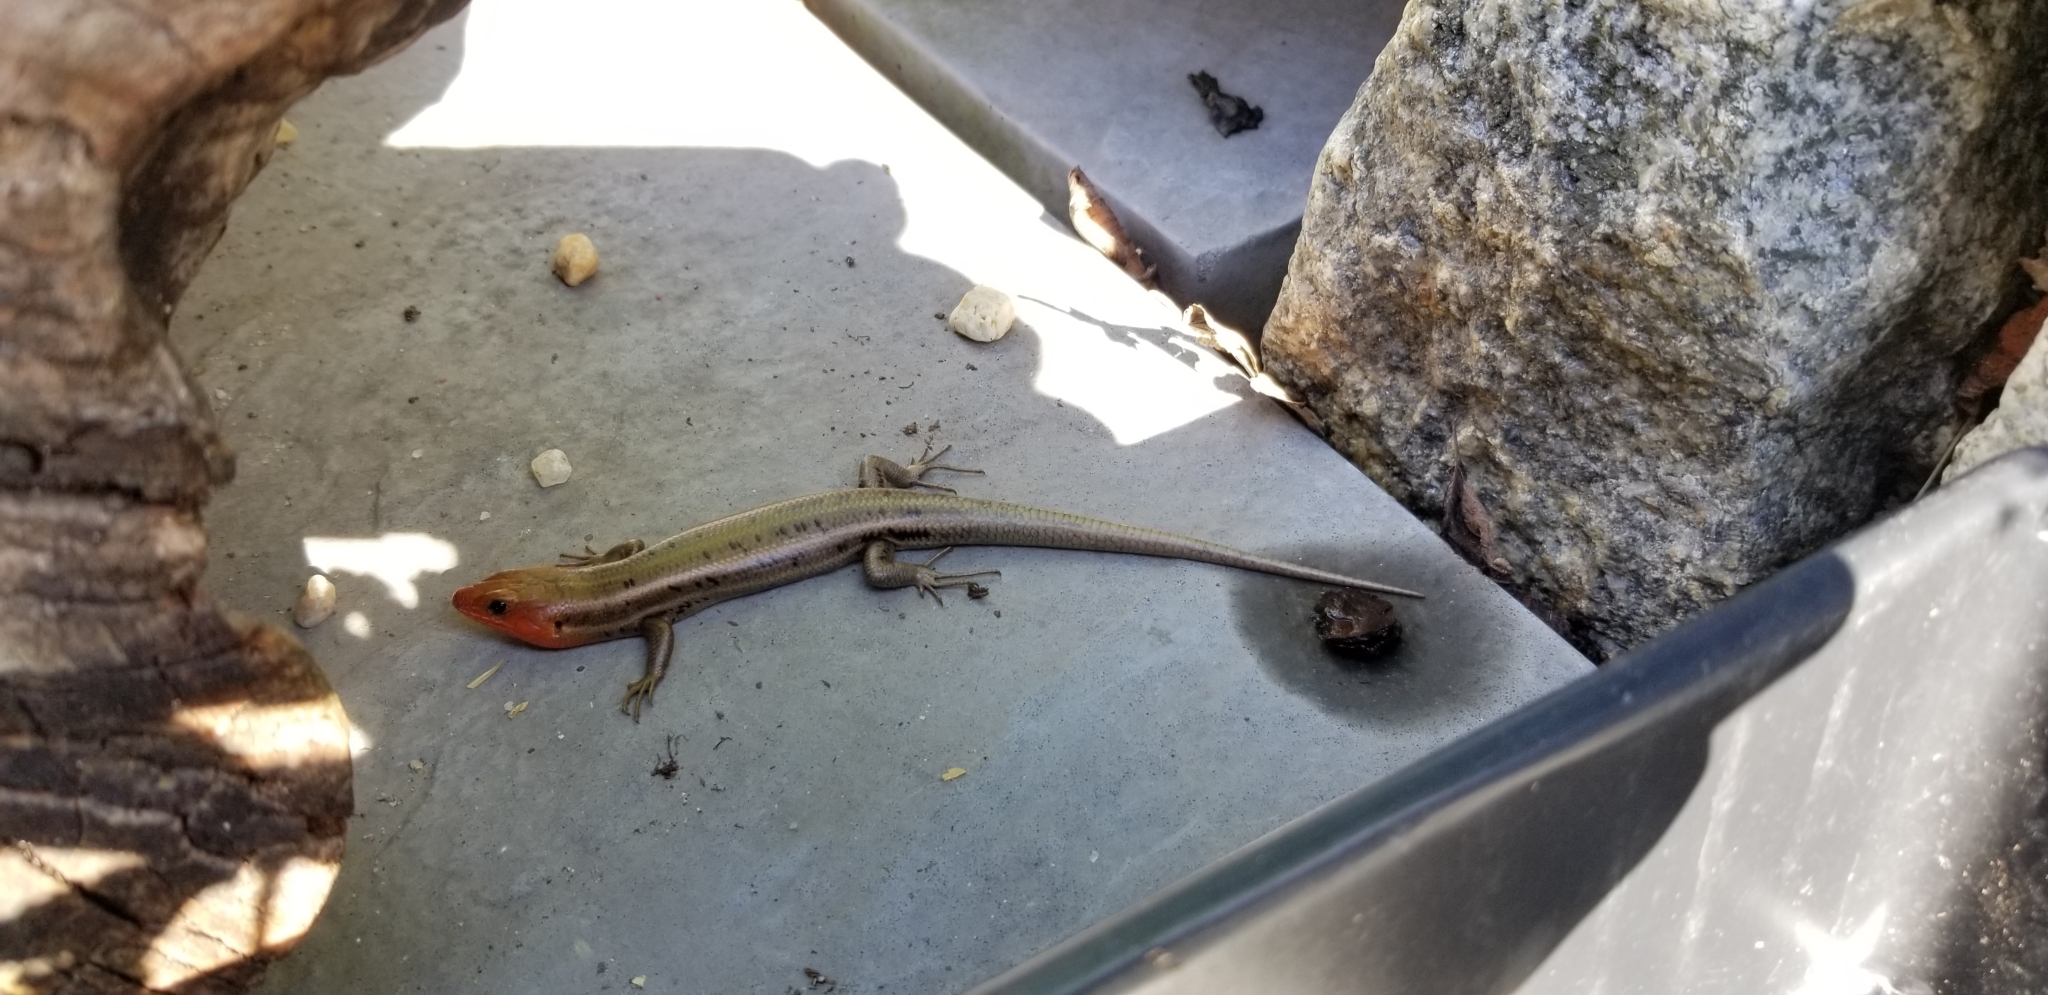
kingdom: Animalia
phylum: Chordata
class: Squamata
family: Scincidae
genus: Plestiodon
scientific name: Plestiodon fasciatus
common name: Five-lined skink
